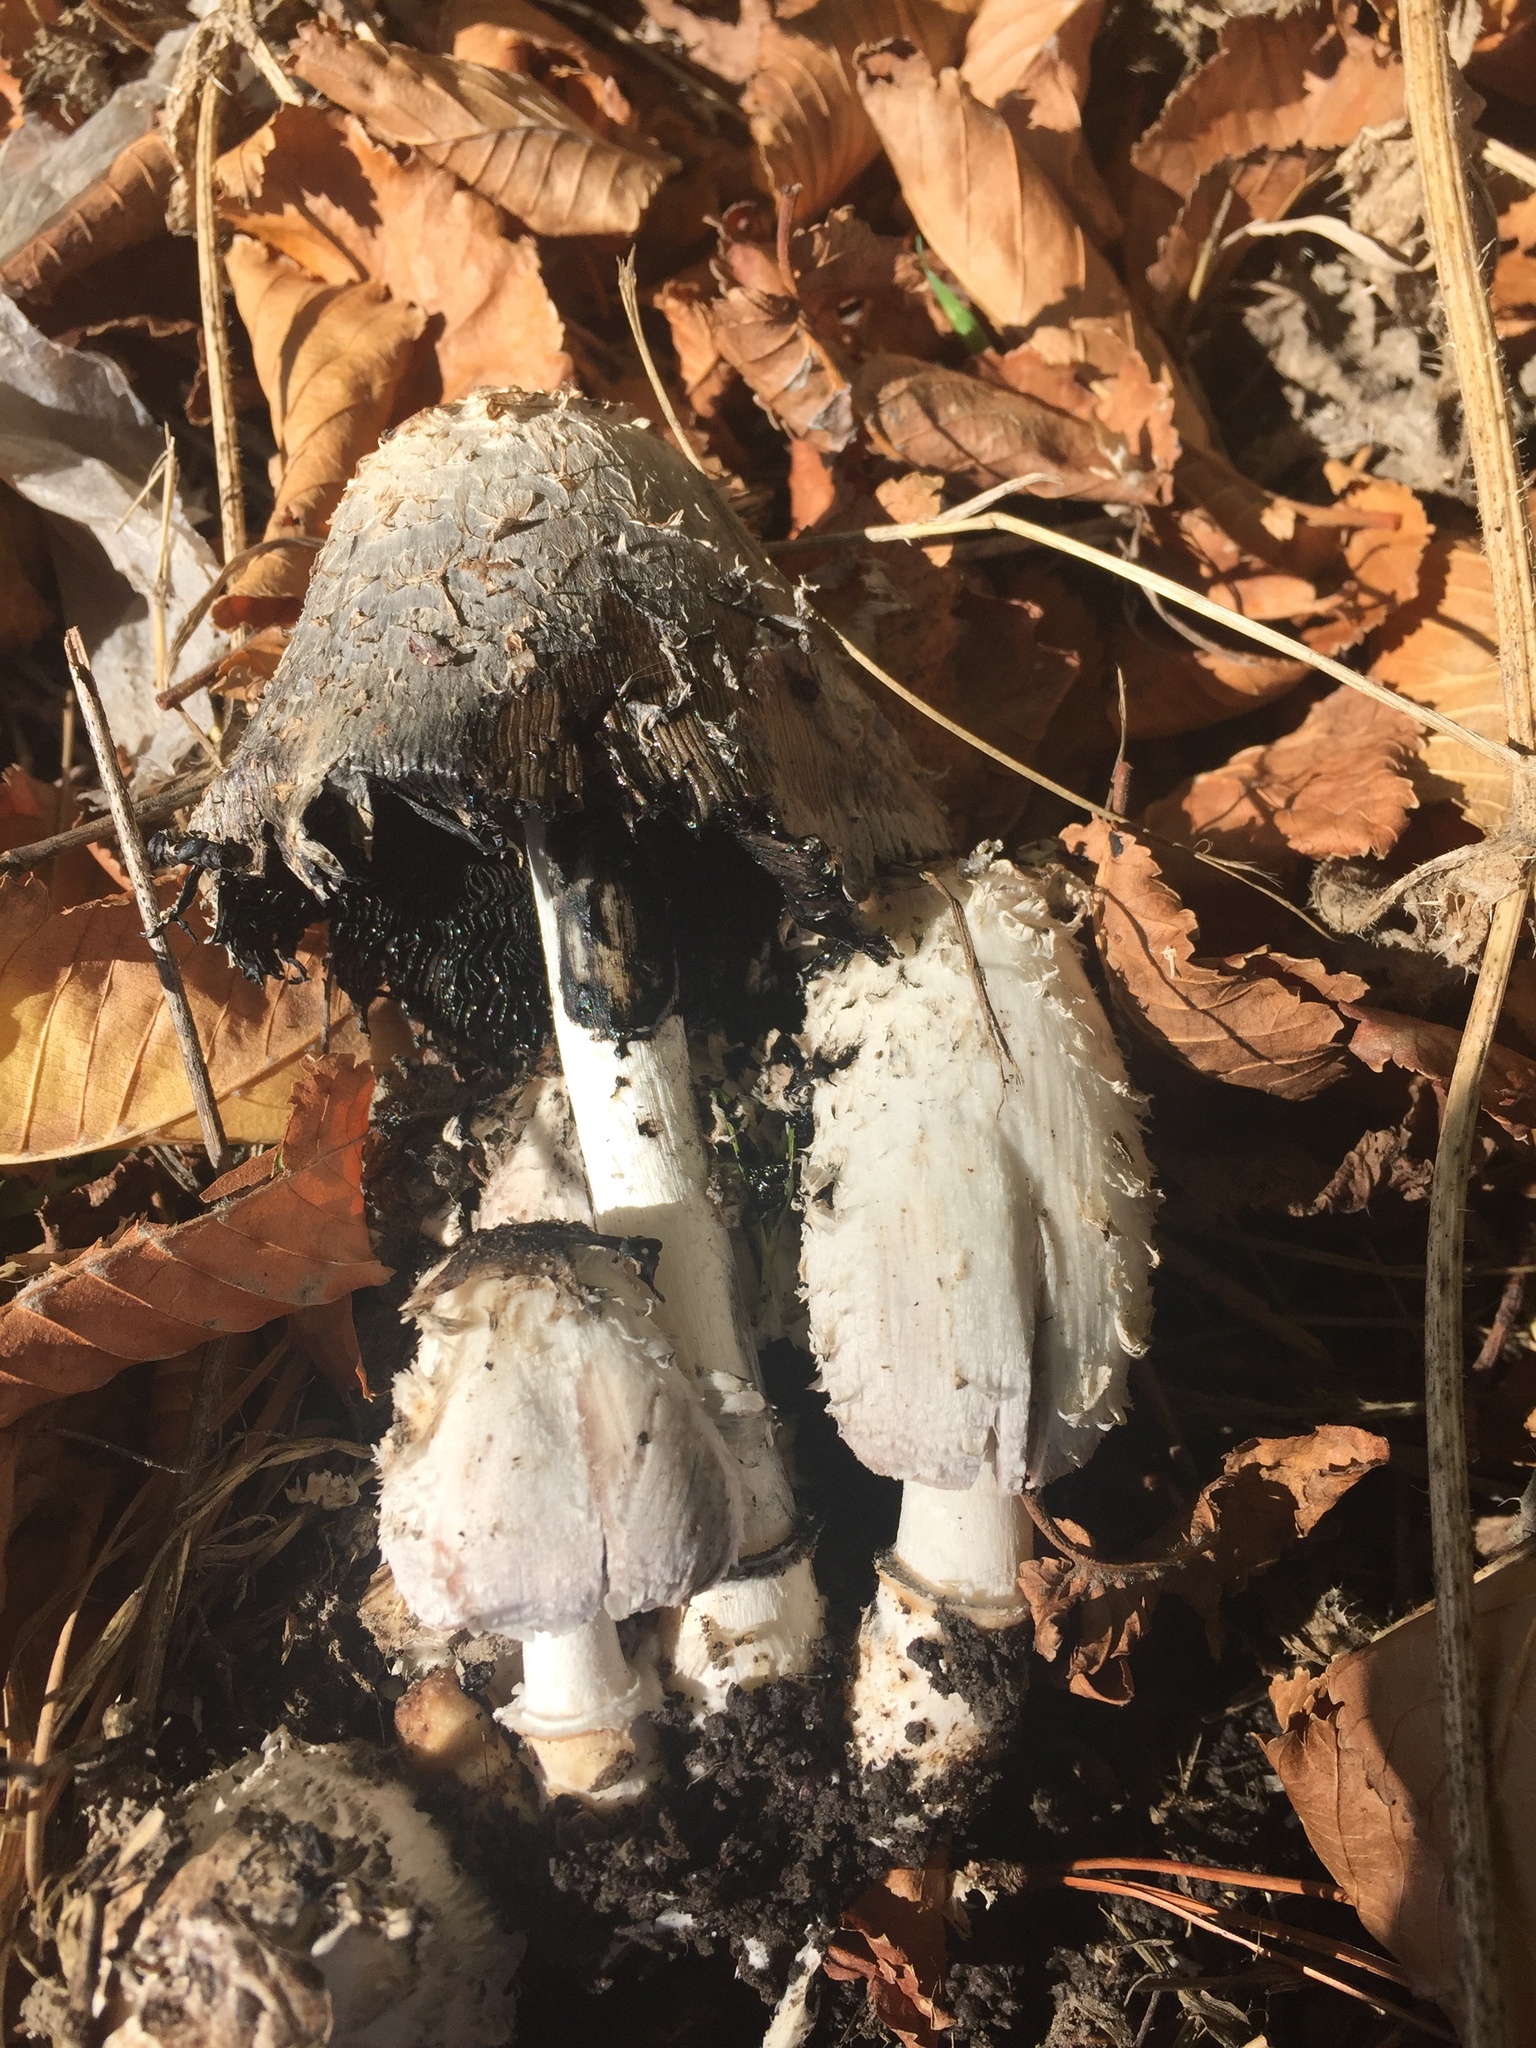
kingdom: Fungi
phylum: Basidiomycota
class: Agaricomycetes
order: Agaricales
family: Agaricaceae
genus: Coprinus
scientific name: Coprinus comatus
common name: Lawyer's wig
